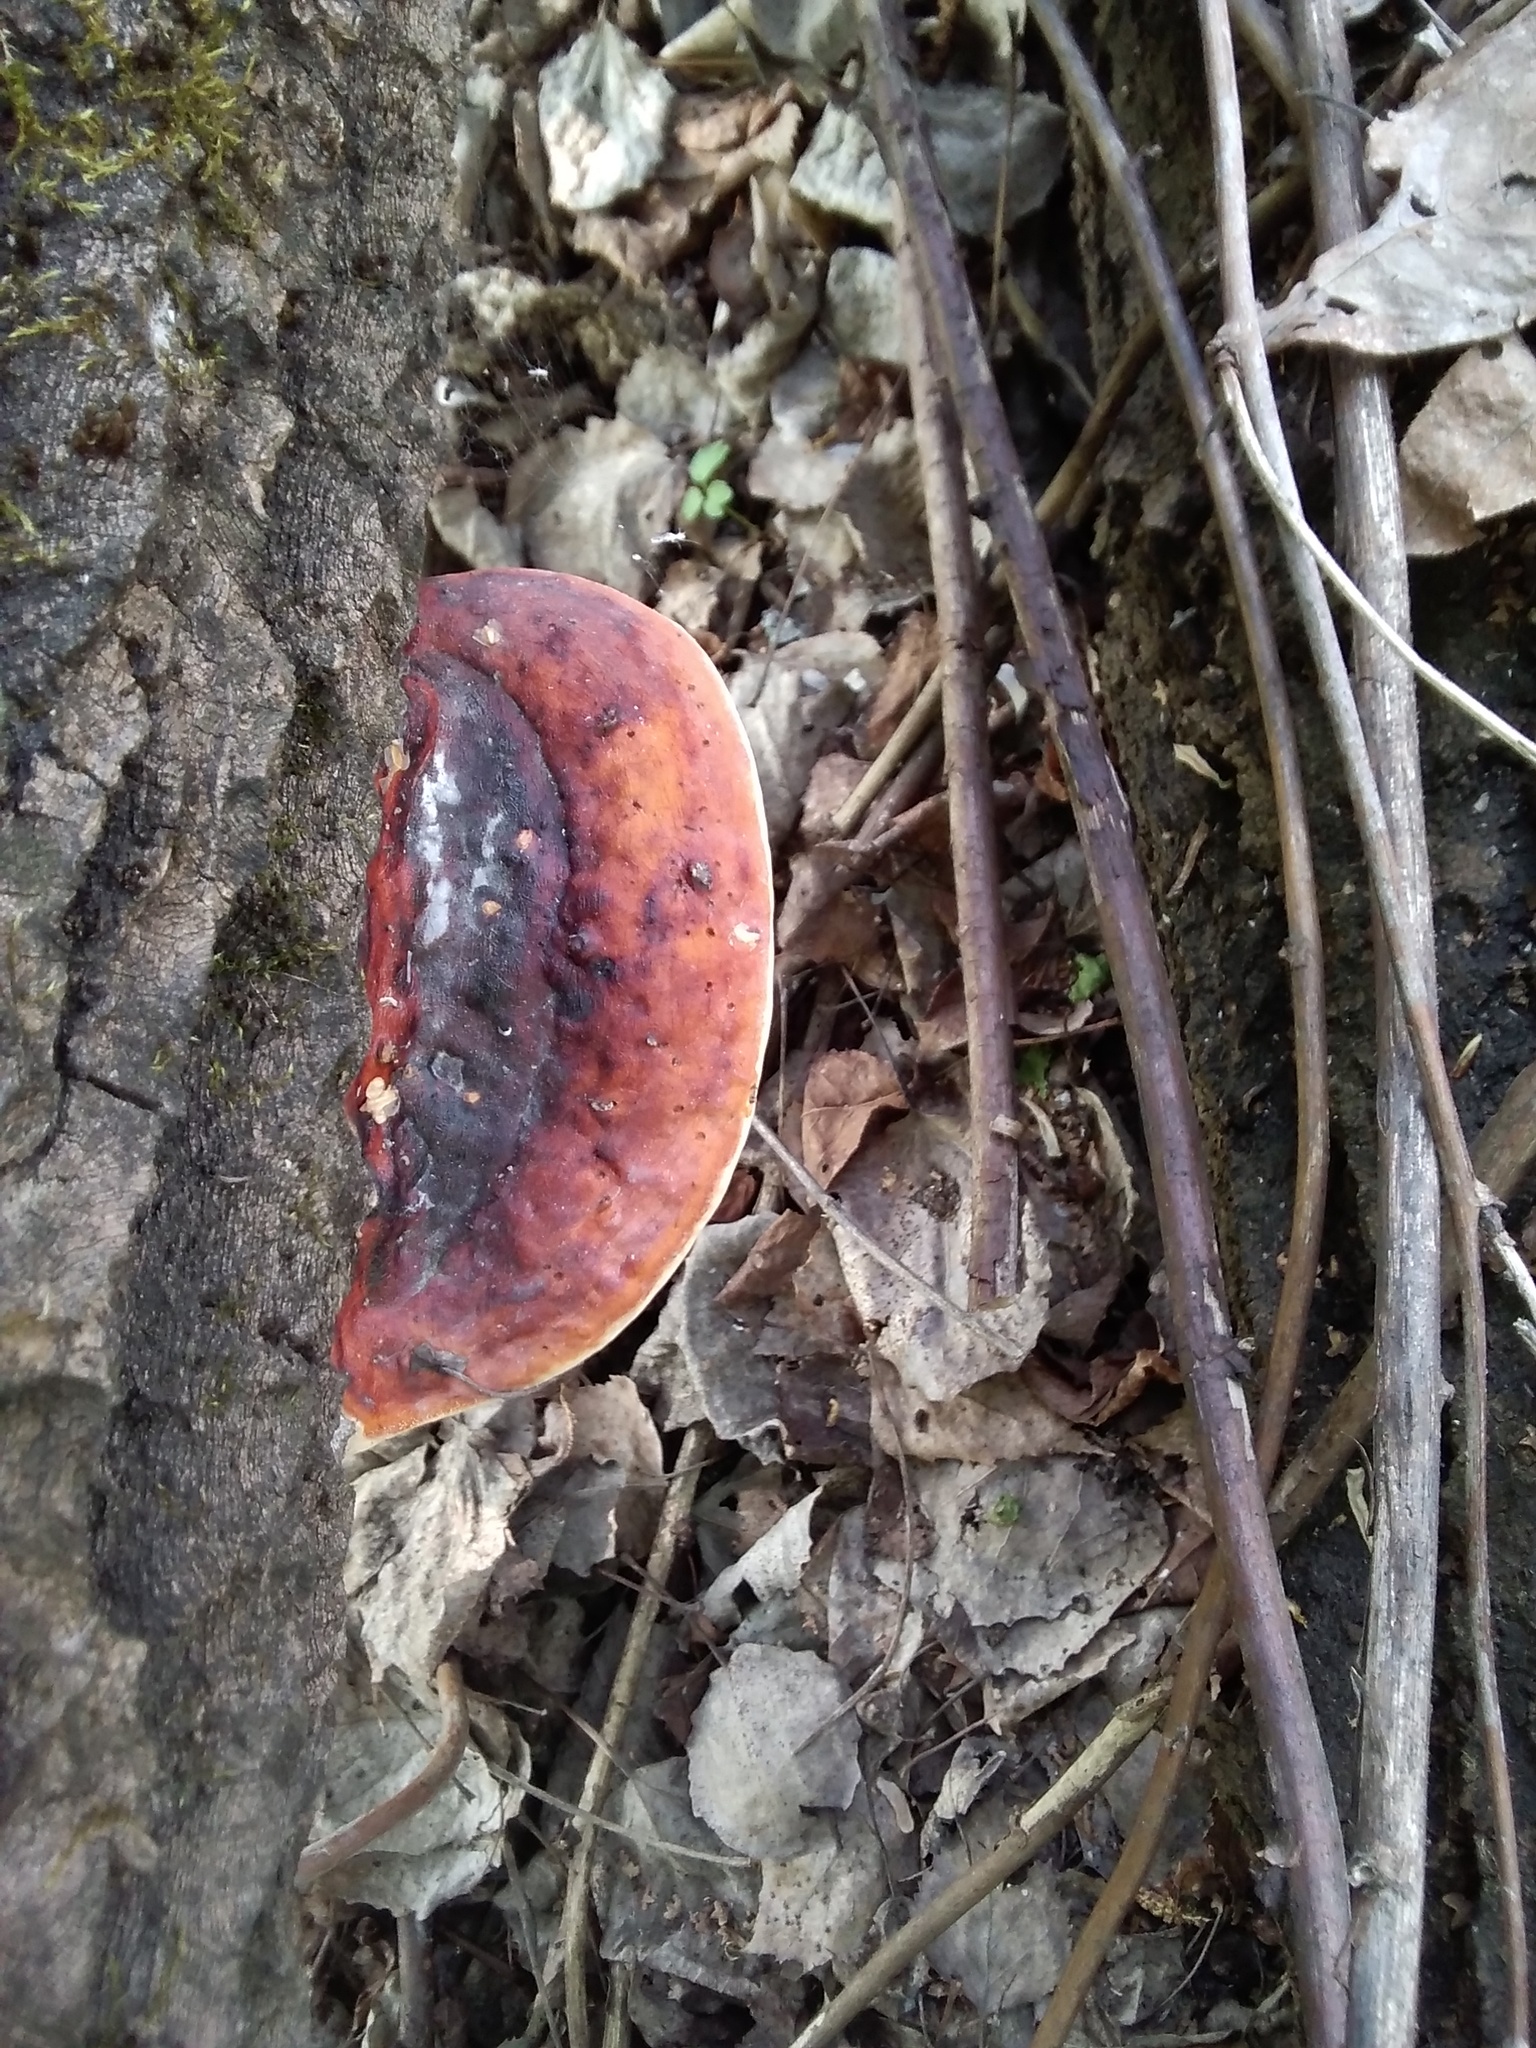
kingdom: Fungi
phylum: Basidiomycota
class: Agaricomycetes
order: Polyporales
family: Fomitopsidaceae
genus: Fomitopsis
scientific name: Fomitopsis pinicola
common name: Red-belted bracket
